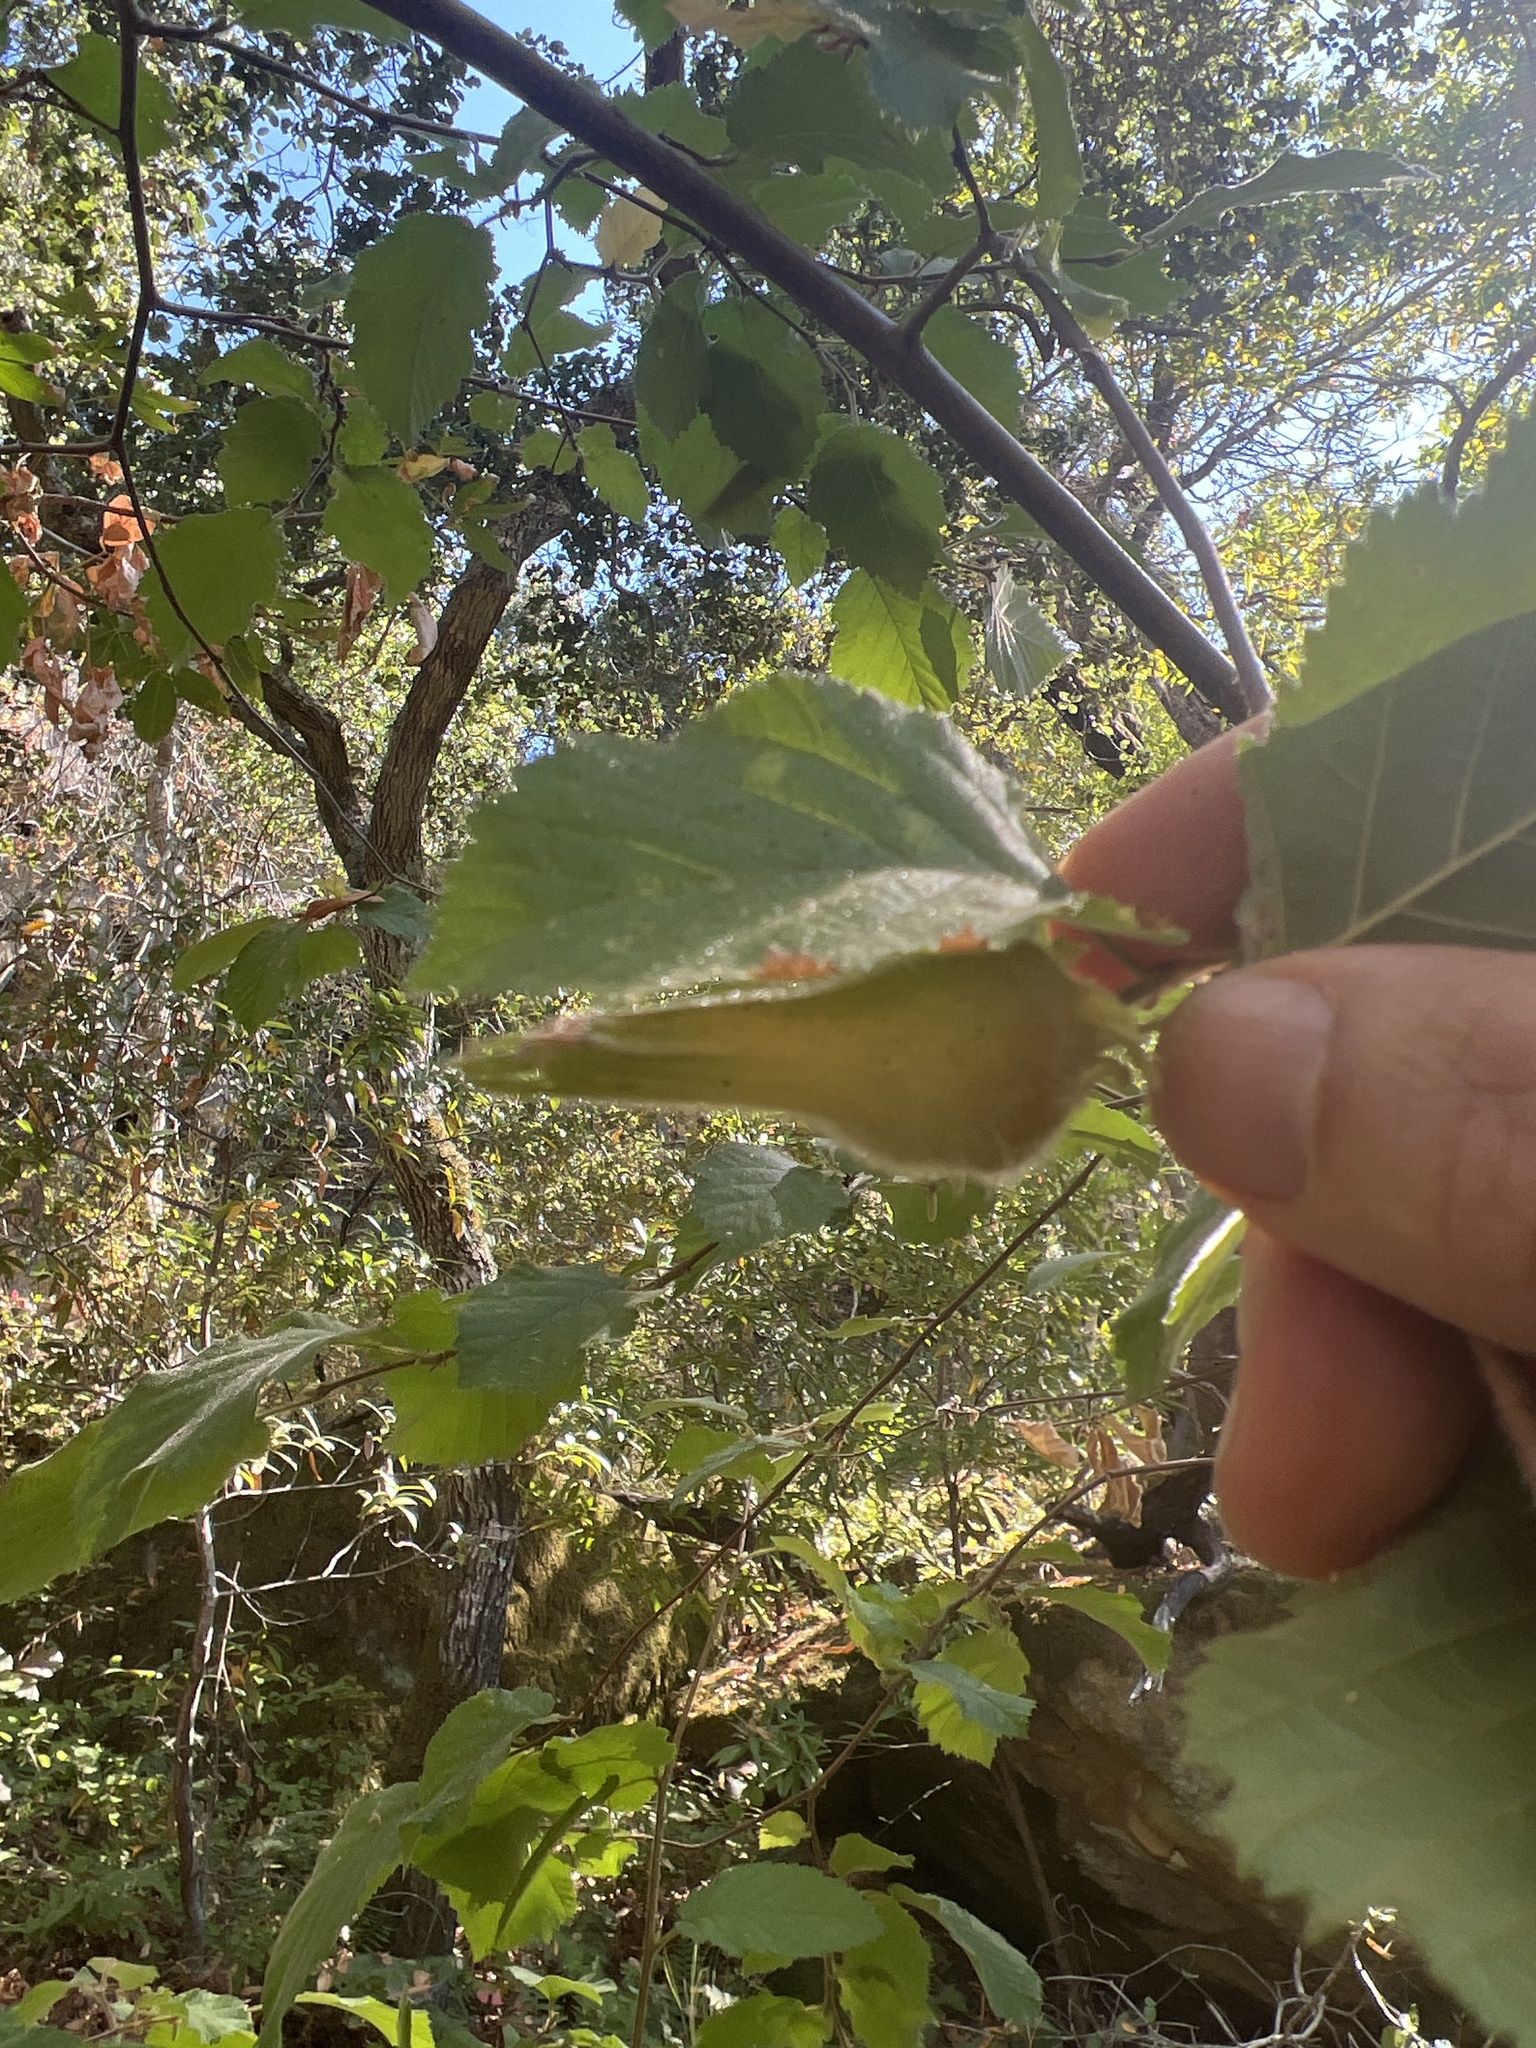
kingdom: Plantae
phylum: Tracheophyta
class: Magnoliopsida
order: Fagales
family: Betulaceae
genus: Corylus
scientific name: Corylus cornuta
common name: Beaked hazel
